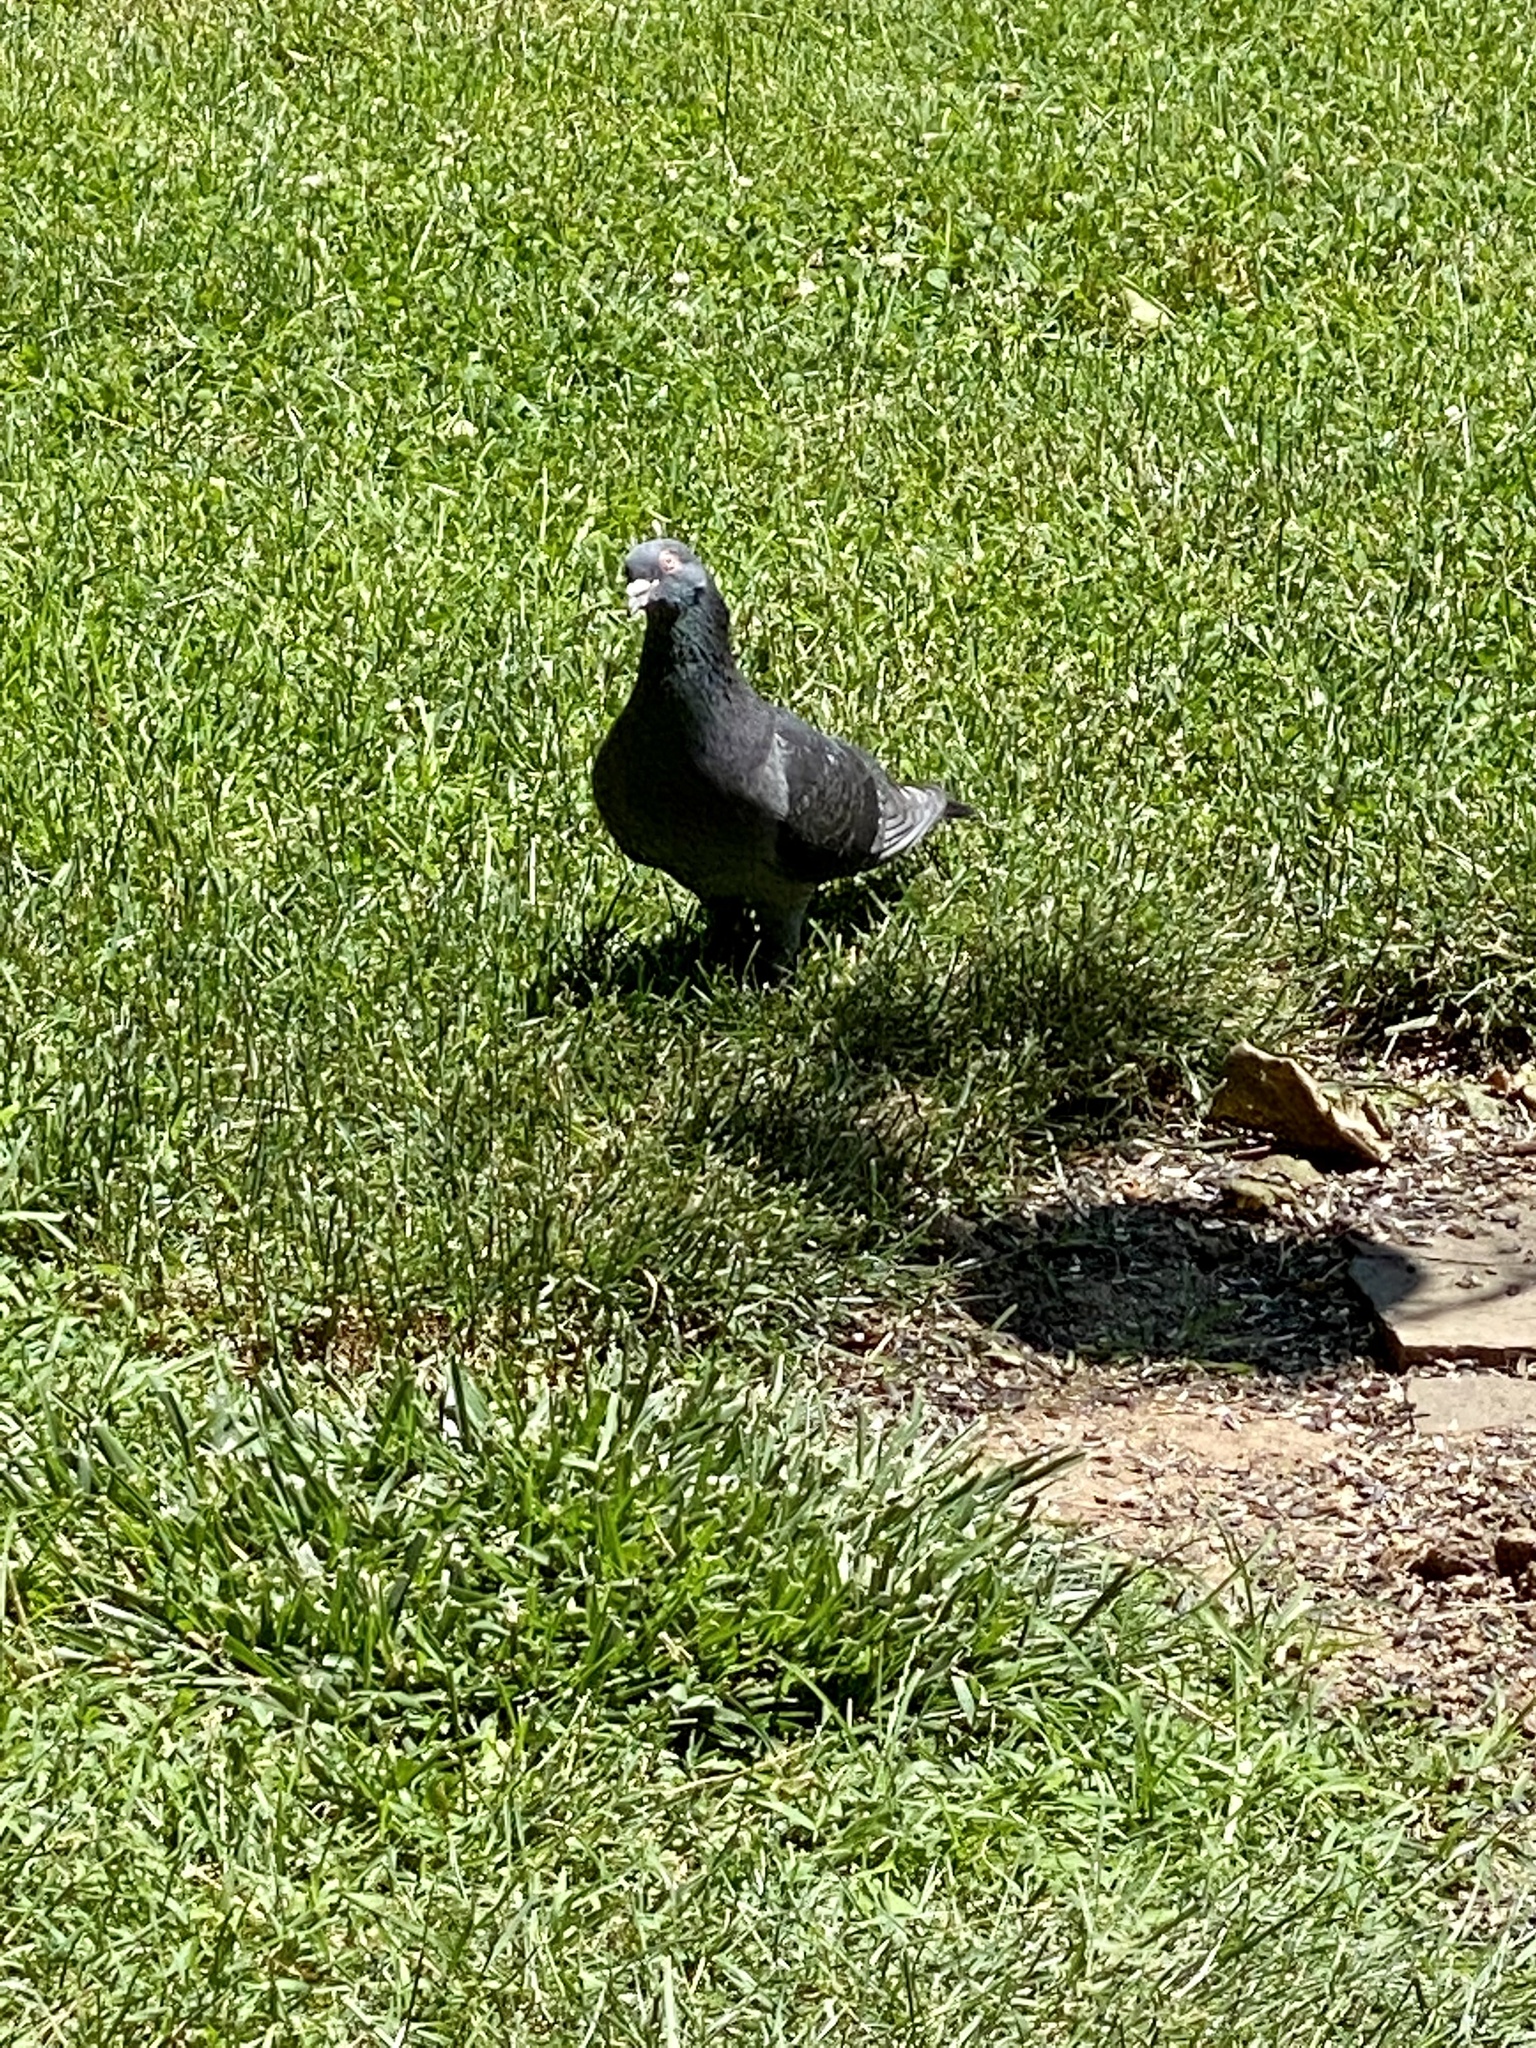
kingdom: Animalia
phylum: Chordata
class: Aves
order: Columbiformes
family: Columbidae
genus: Columba
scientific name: Columba livia
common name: Rock pigeon
